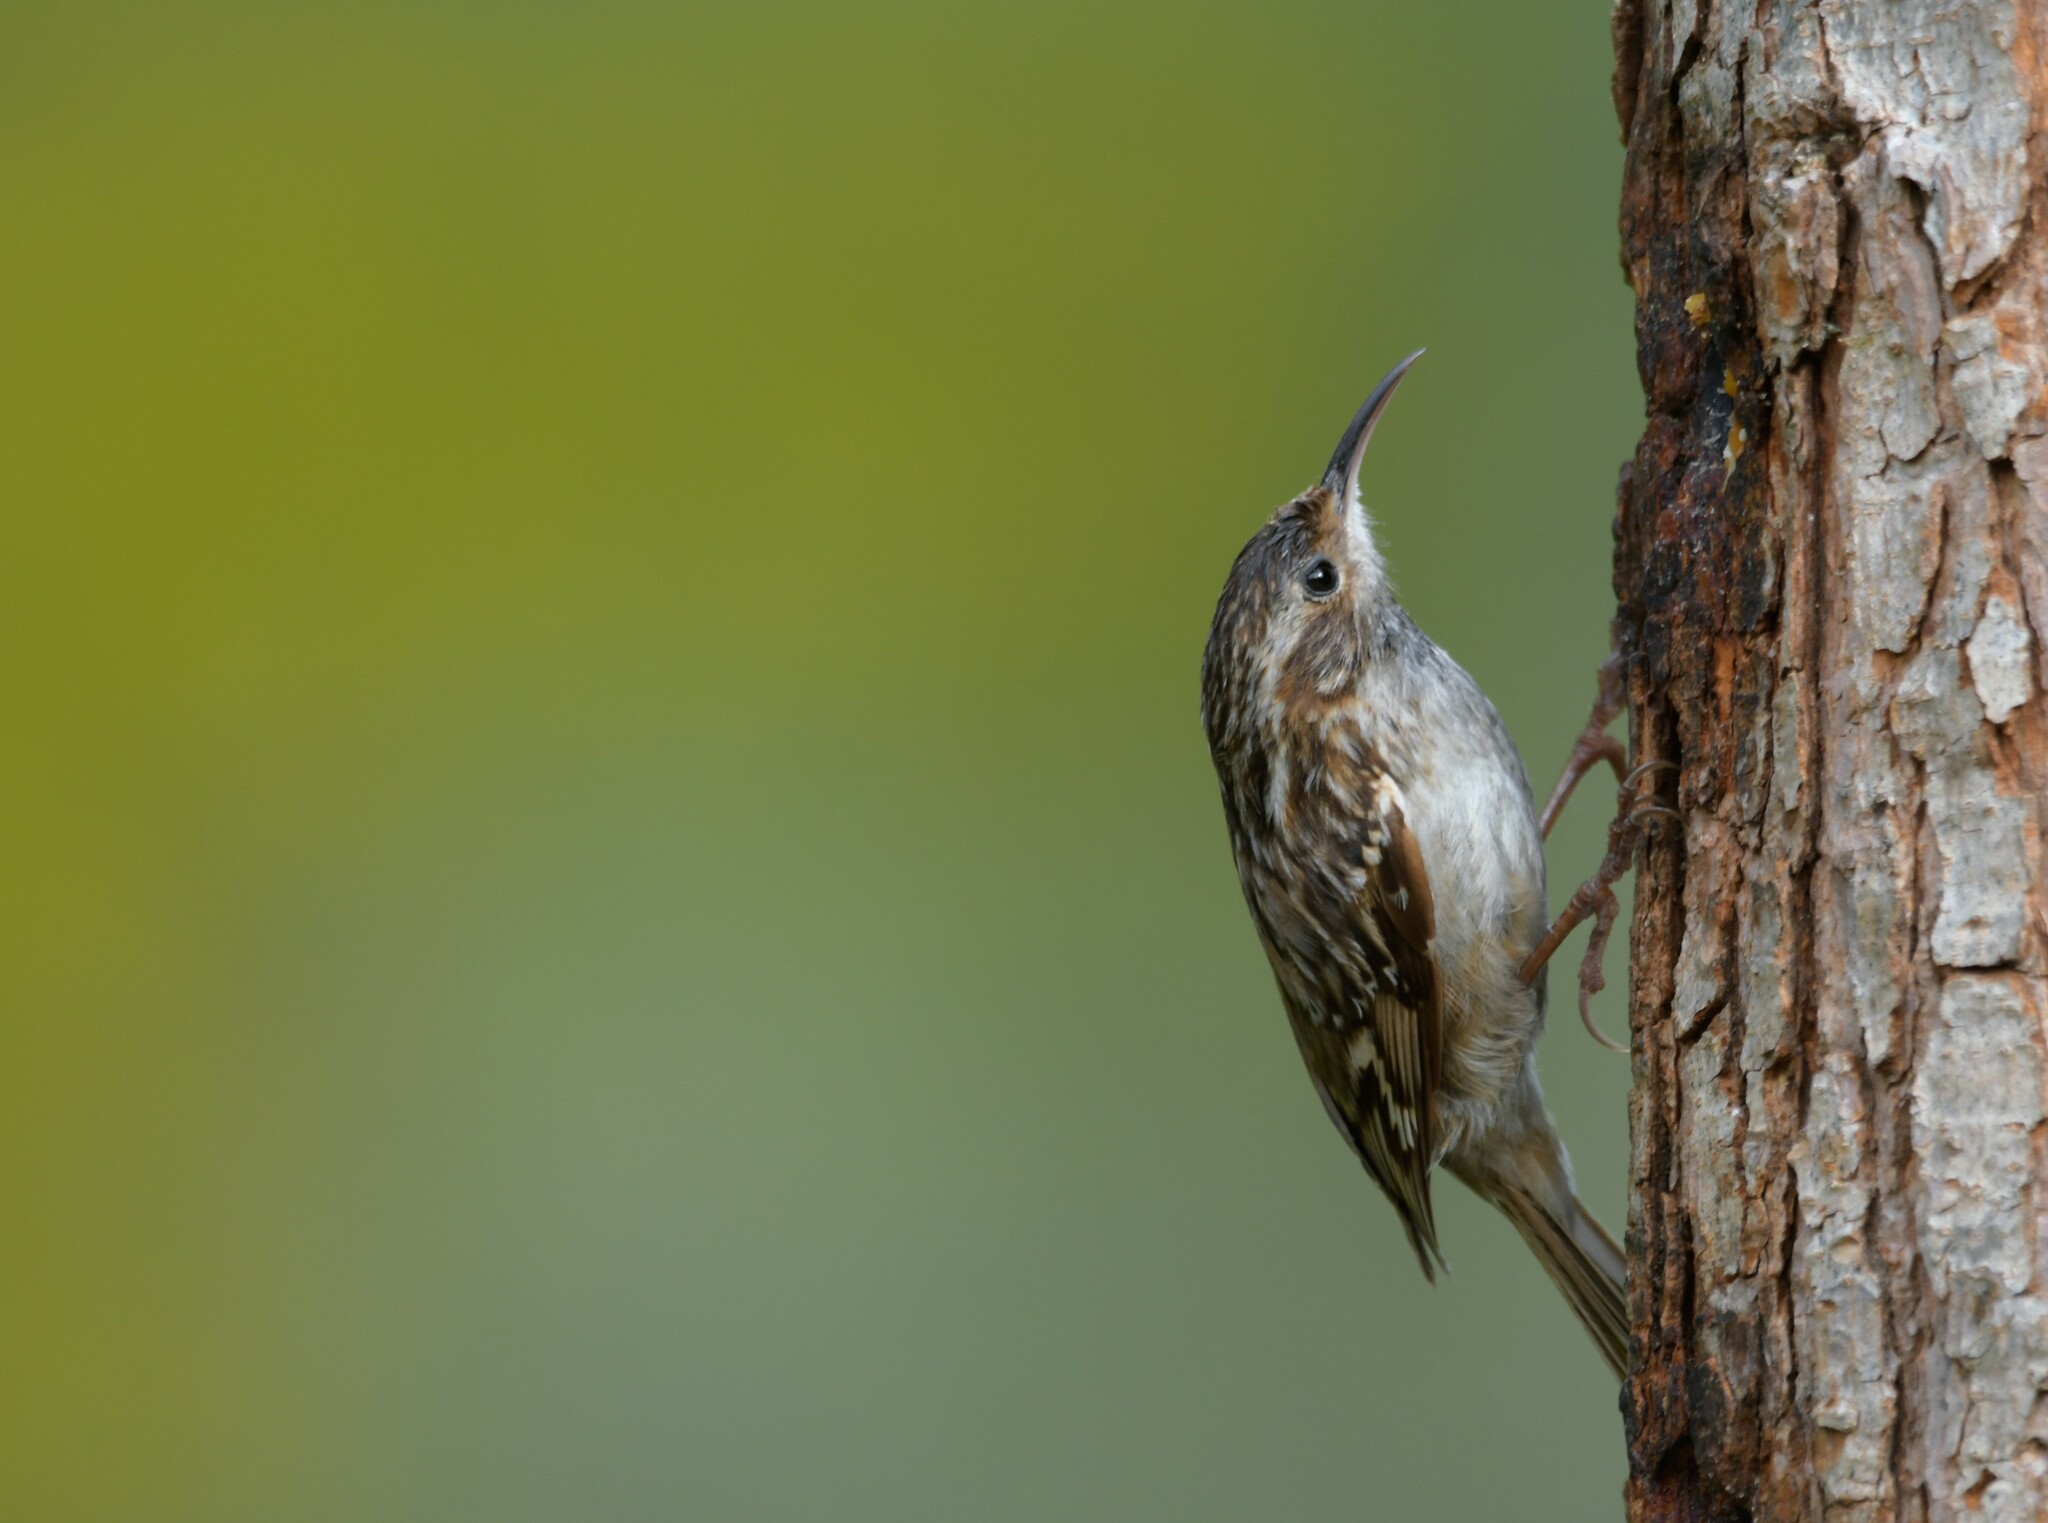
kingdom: Animalia
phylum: Chordata
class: Aves
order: Passeriformes
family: Certhiidae
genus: Certhia
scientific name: Certhia brachydactyla
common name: Short-toed treecreeper
